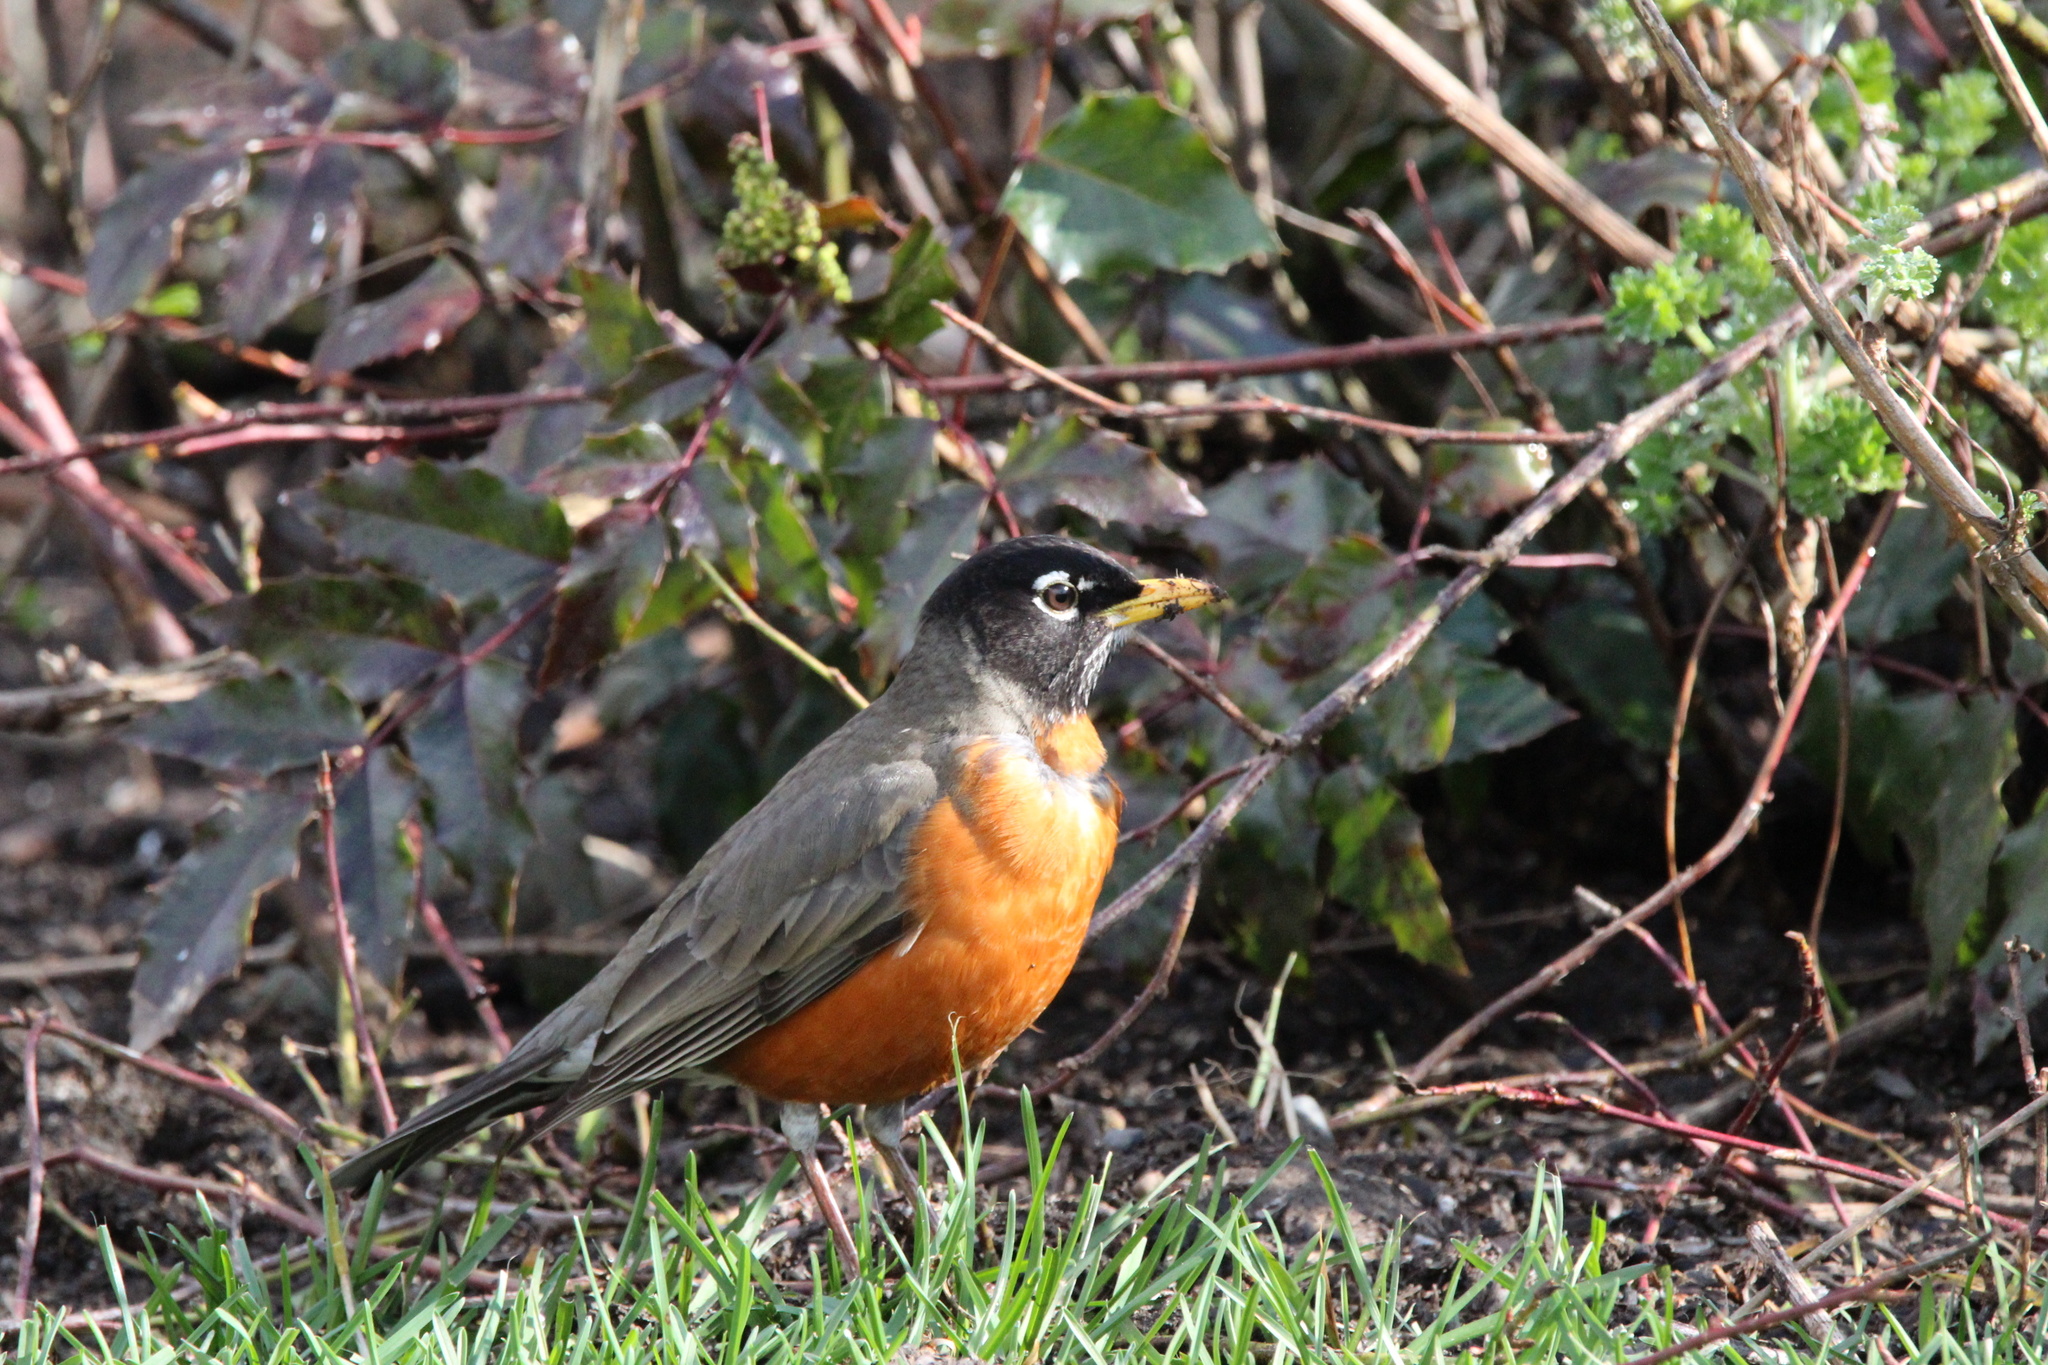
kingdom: Animalia
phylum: Chordata
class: Aves
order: Passeriformes
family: Turdidae
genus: Turdus
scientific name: Turdus migratorius
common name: American robin
